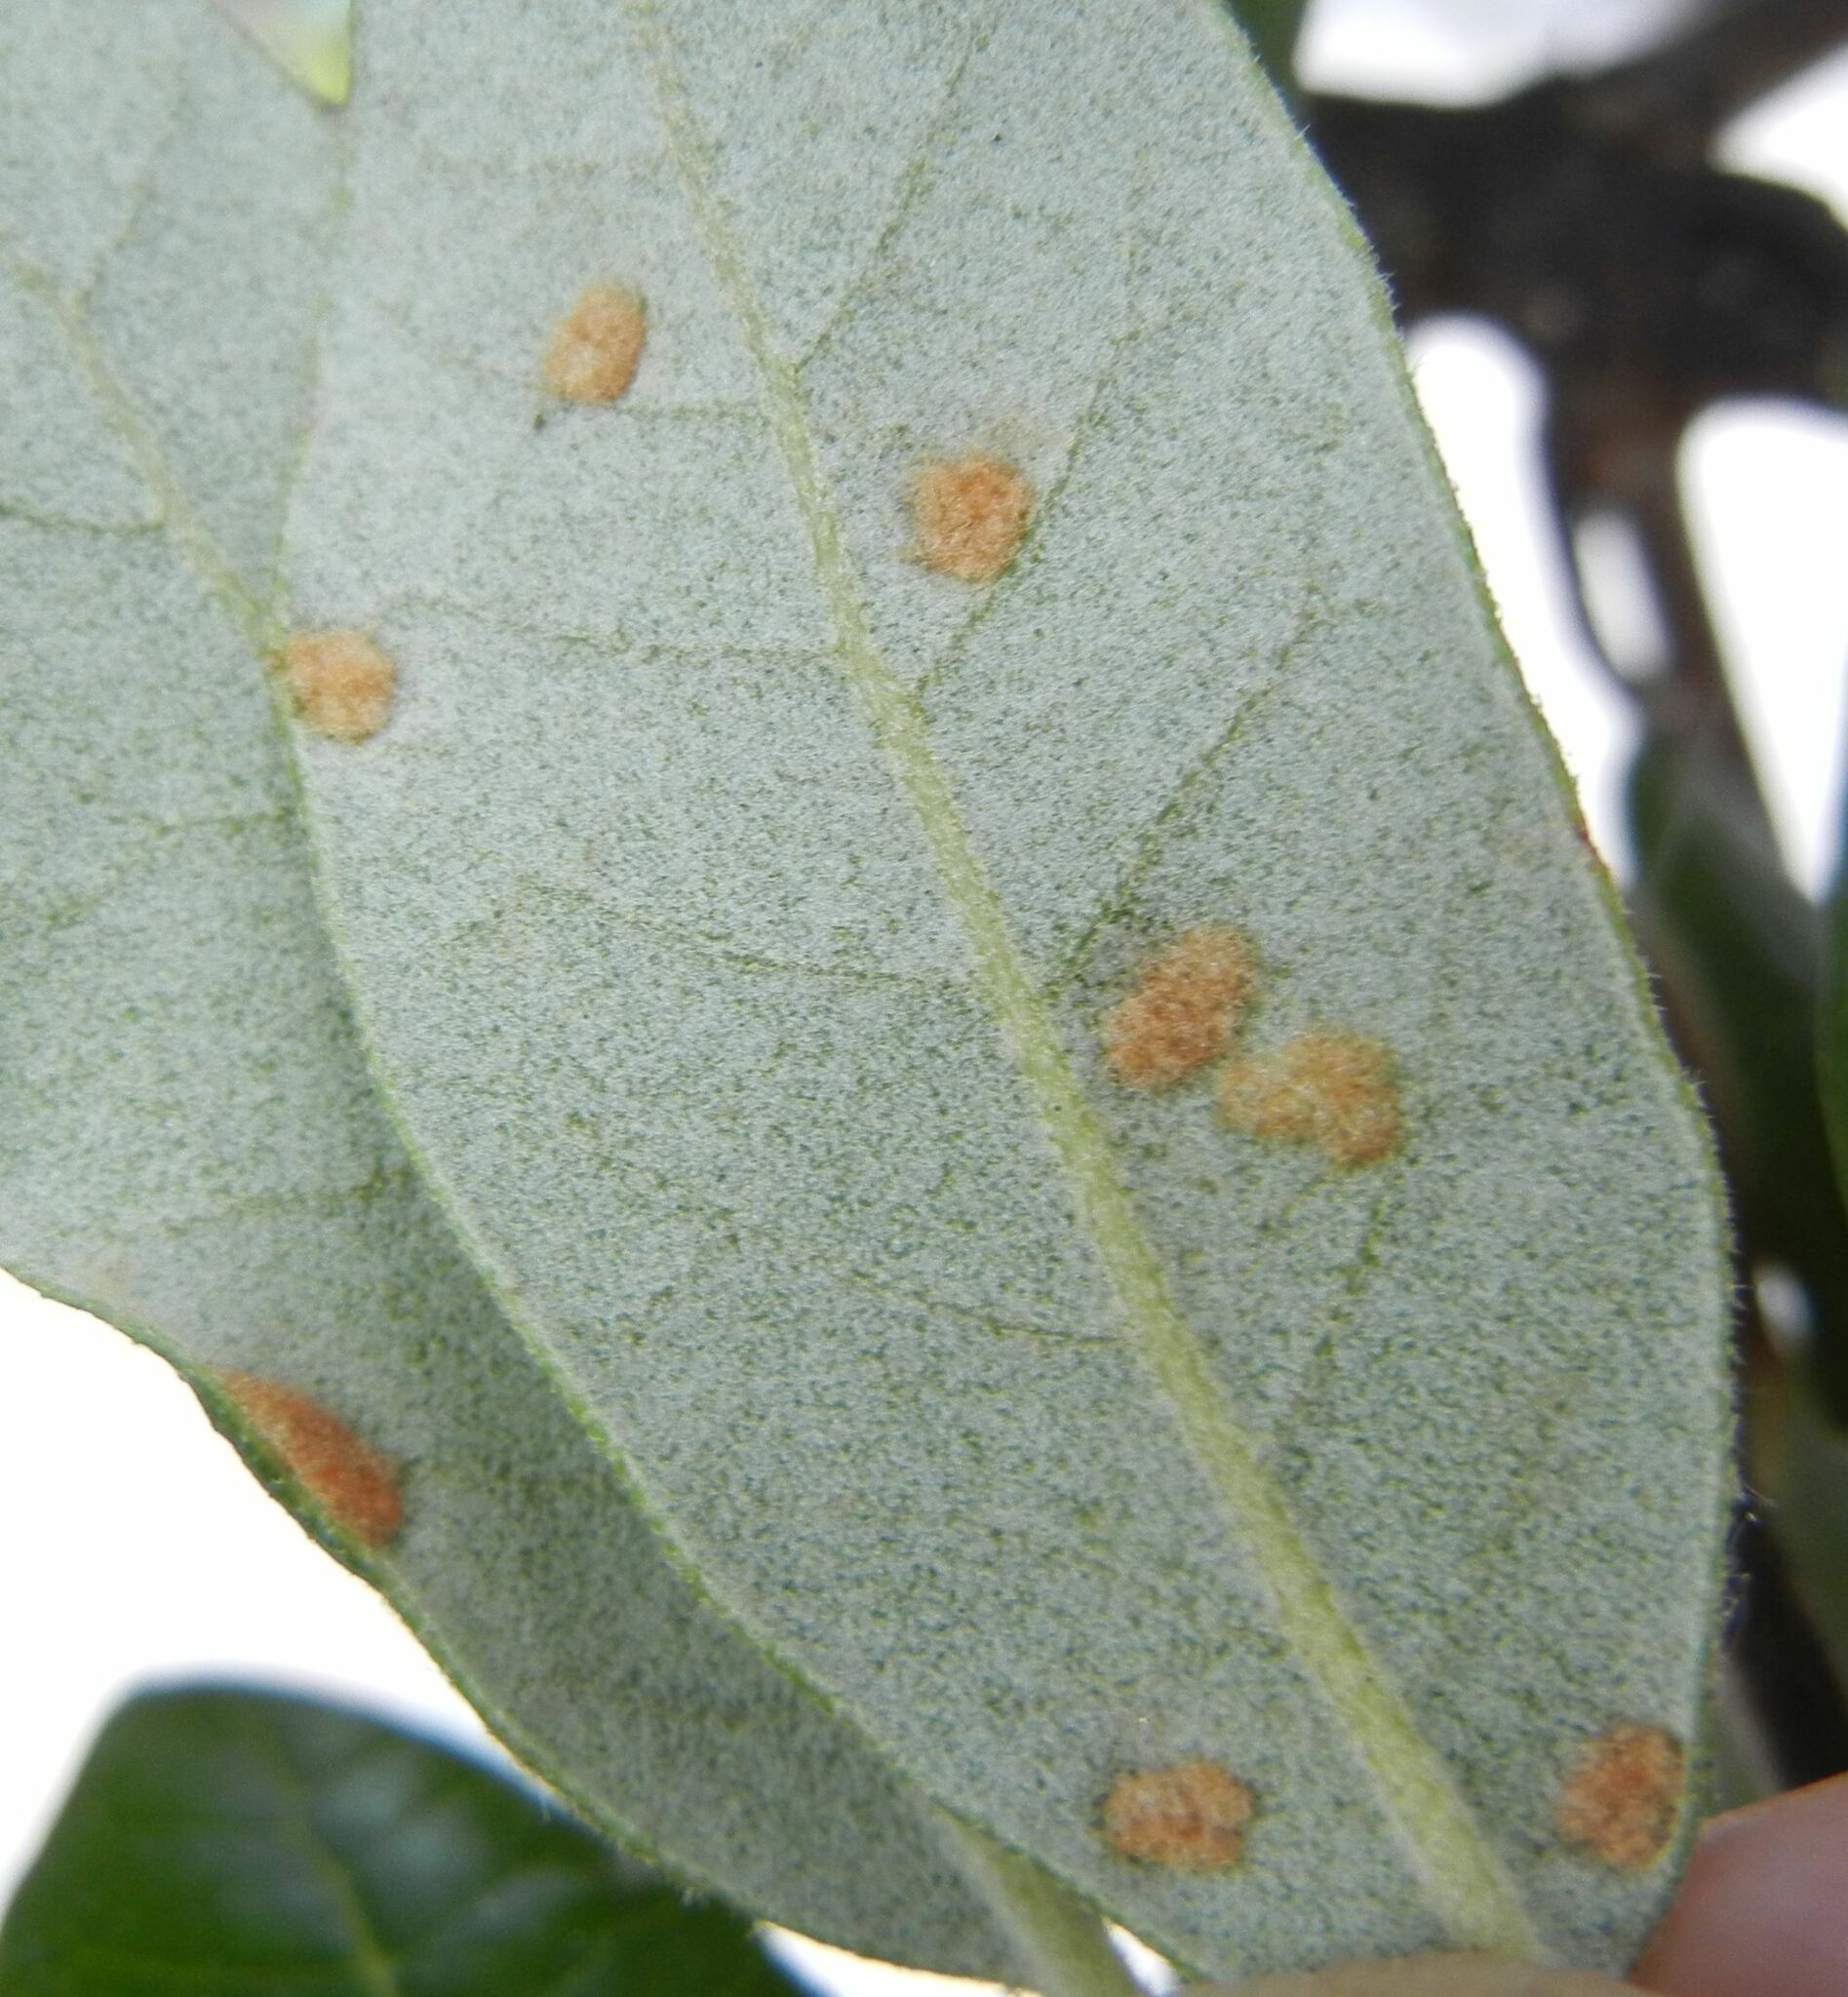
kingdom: Animalia
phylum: Arthropoda
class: Arachnida
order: Trombidiformes
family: Eriophyidae
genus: Aceria
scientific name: Aceria ilicis
